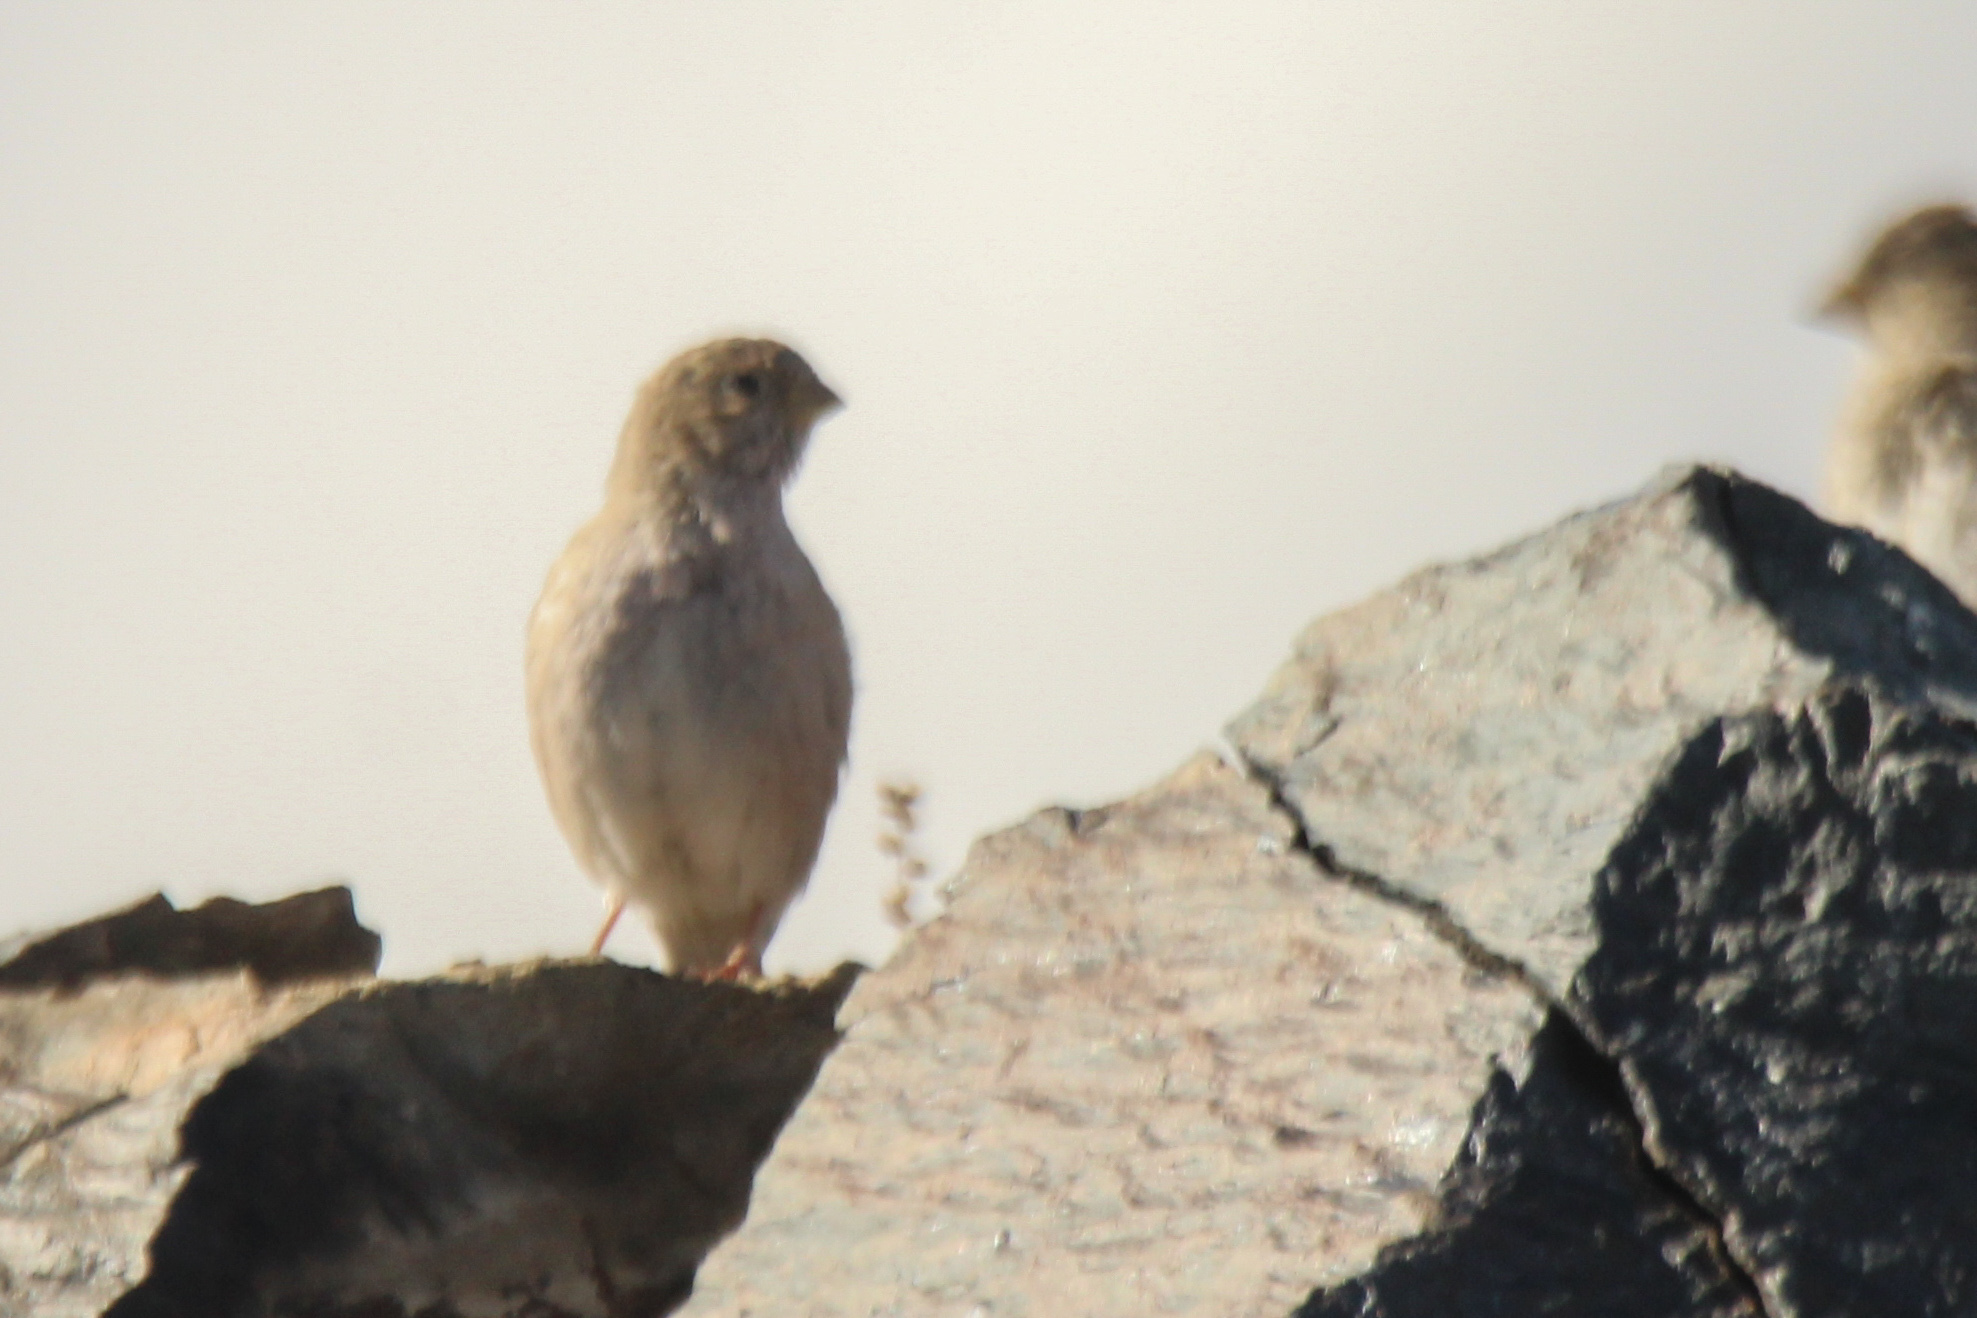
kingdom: Animalia
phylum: Chordata
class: Aves
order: Passeriformes
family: Fringillidae
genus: Bucanetes
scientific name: Bucanetes mongolicus
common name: Mongolian finch
